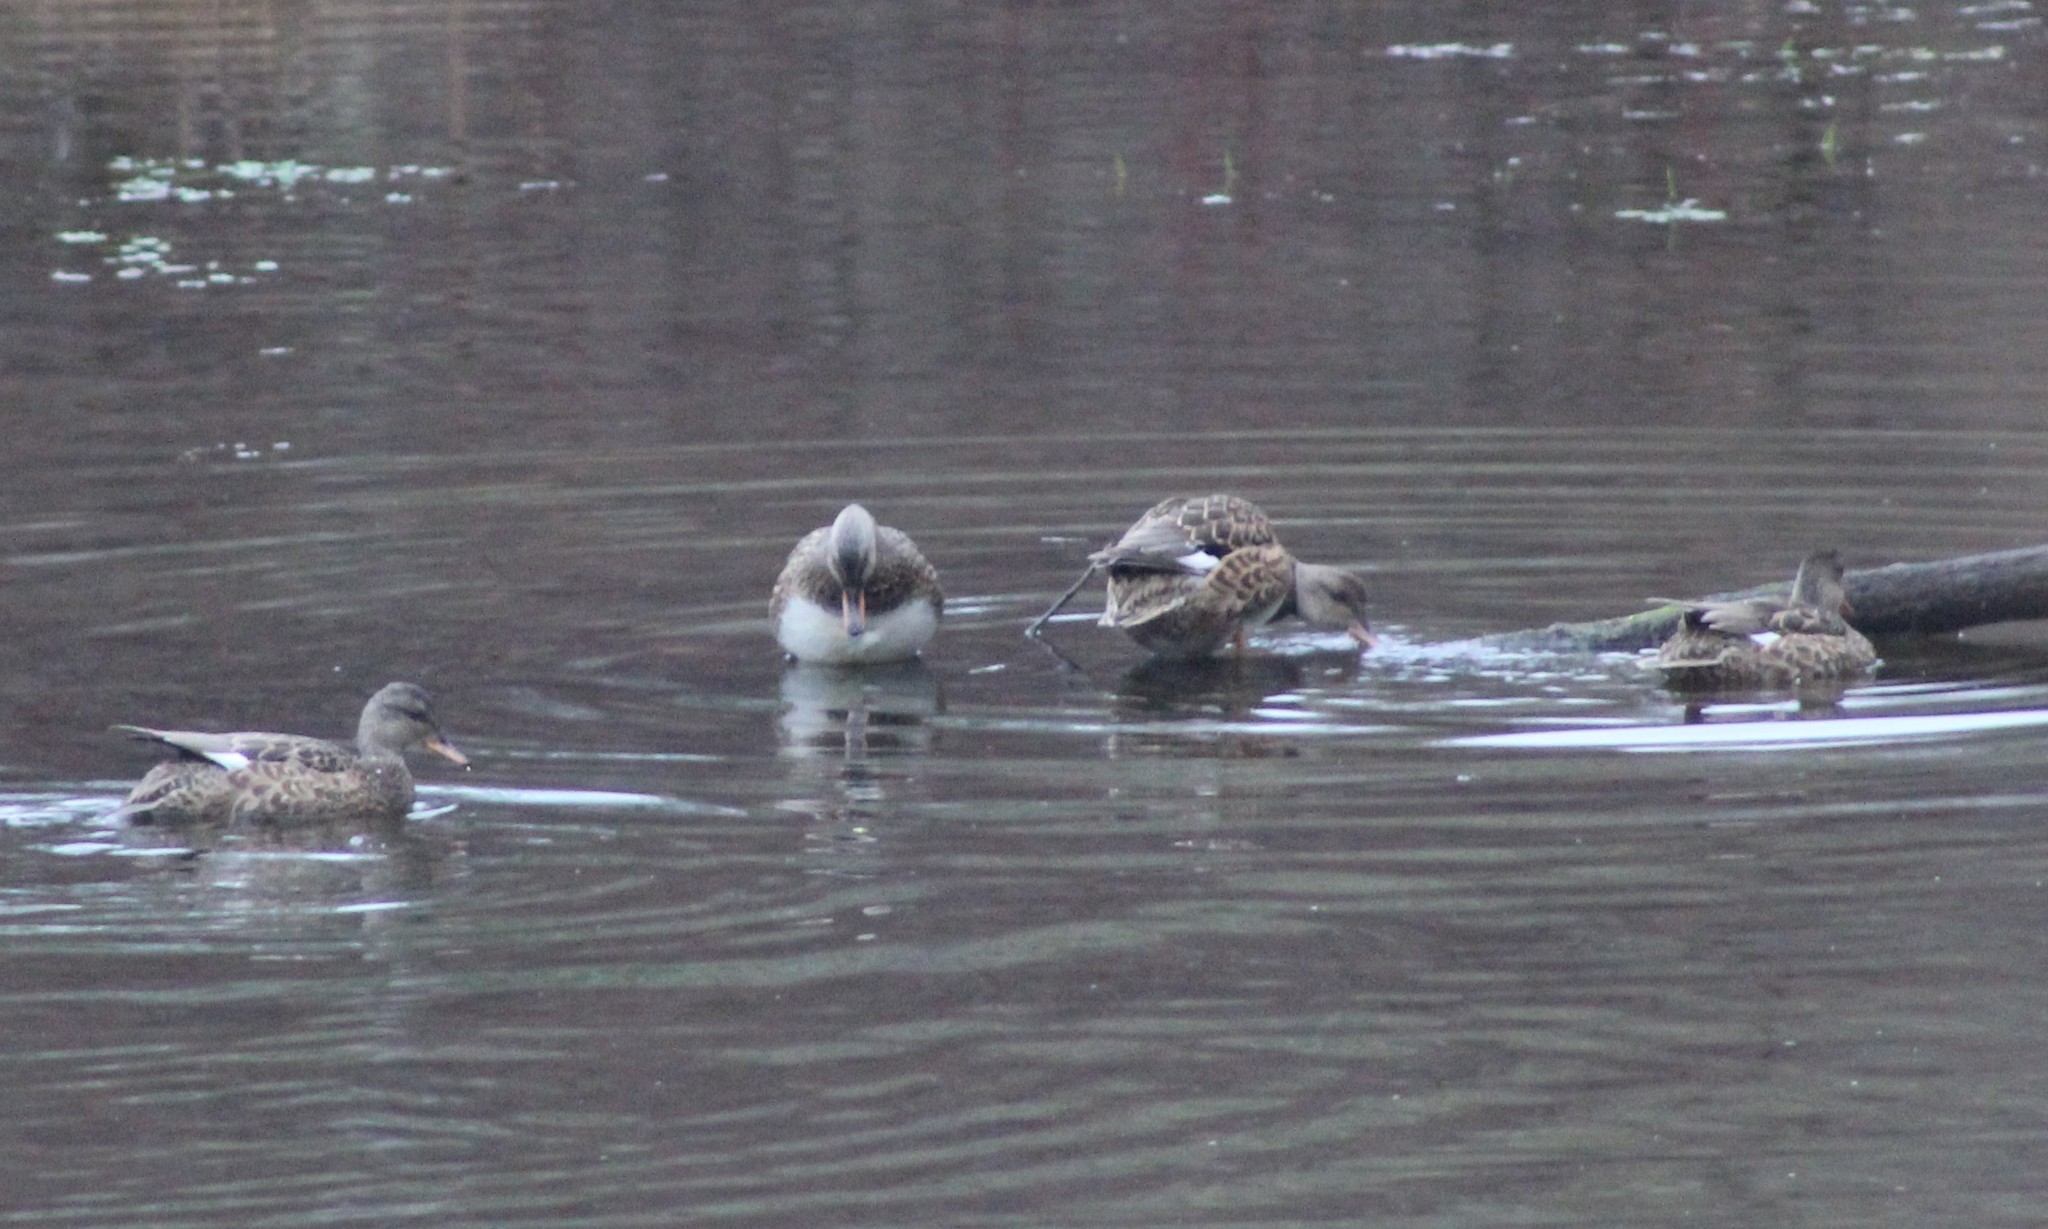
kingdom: Animalia
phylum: Chordata
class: Aves
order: Anseriformes
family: Anatidae
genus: Mareca
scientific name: Mareca strepera
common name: Gadwall
